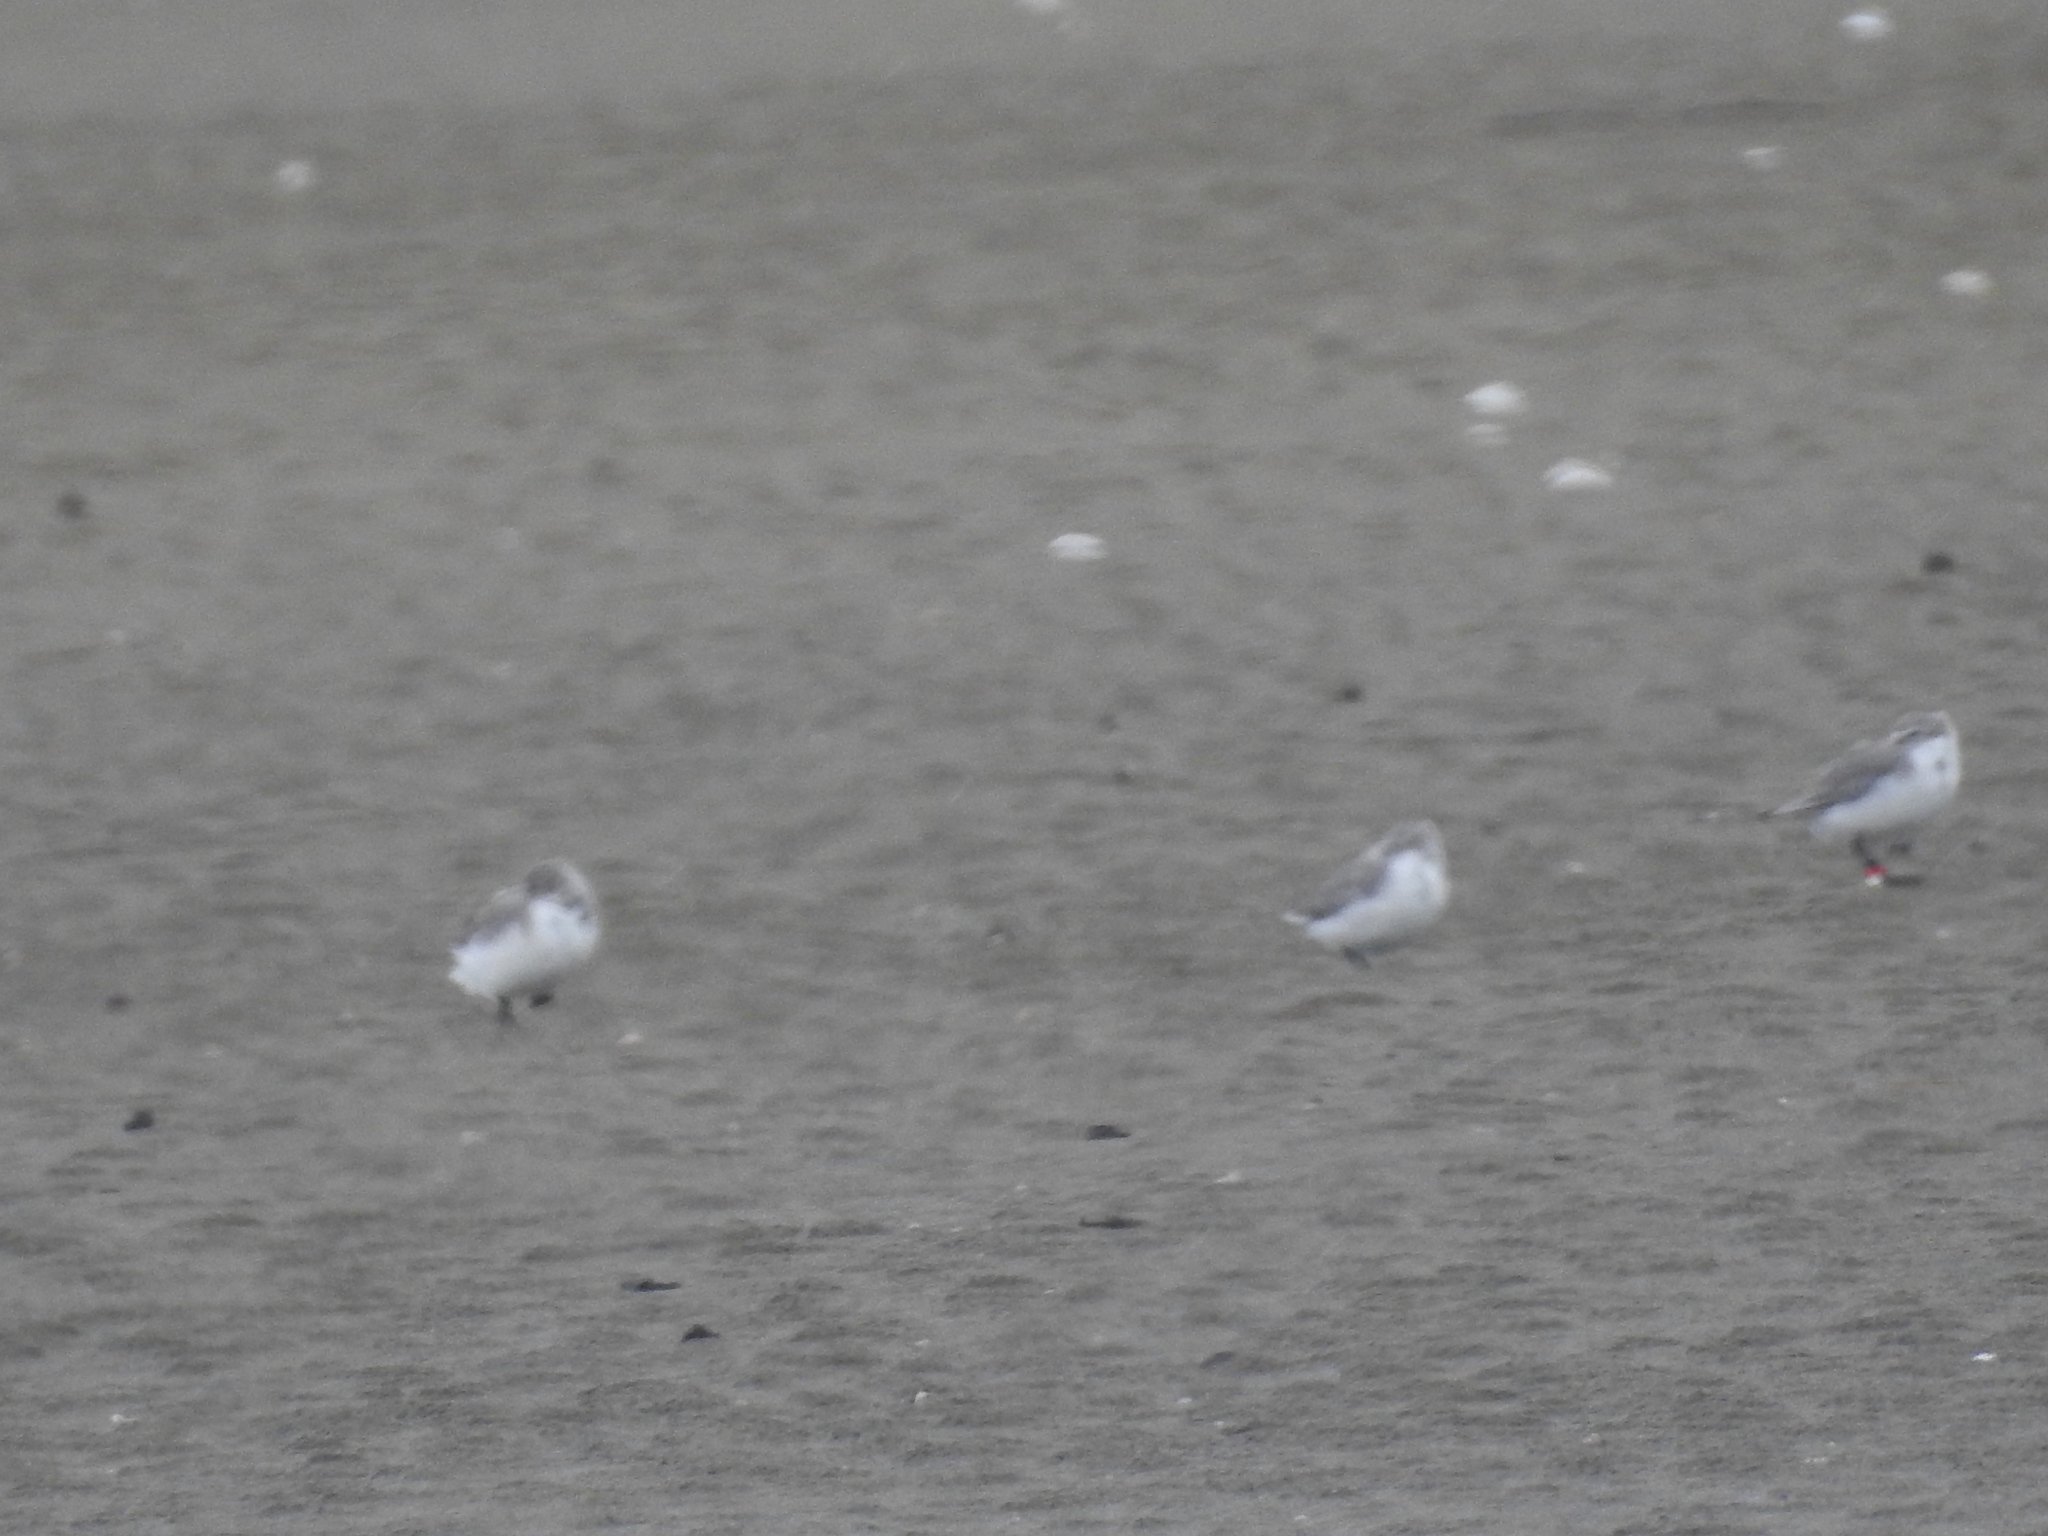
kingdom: Animalia
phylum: Chordata
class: Aves
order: Charadriiformes
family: Charadriidae
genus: Anarhynchus
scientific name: Anarhynchus frontalis
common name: Wrybill
